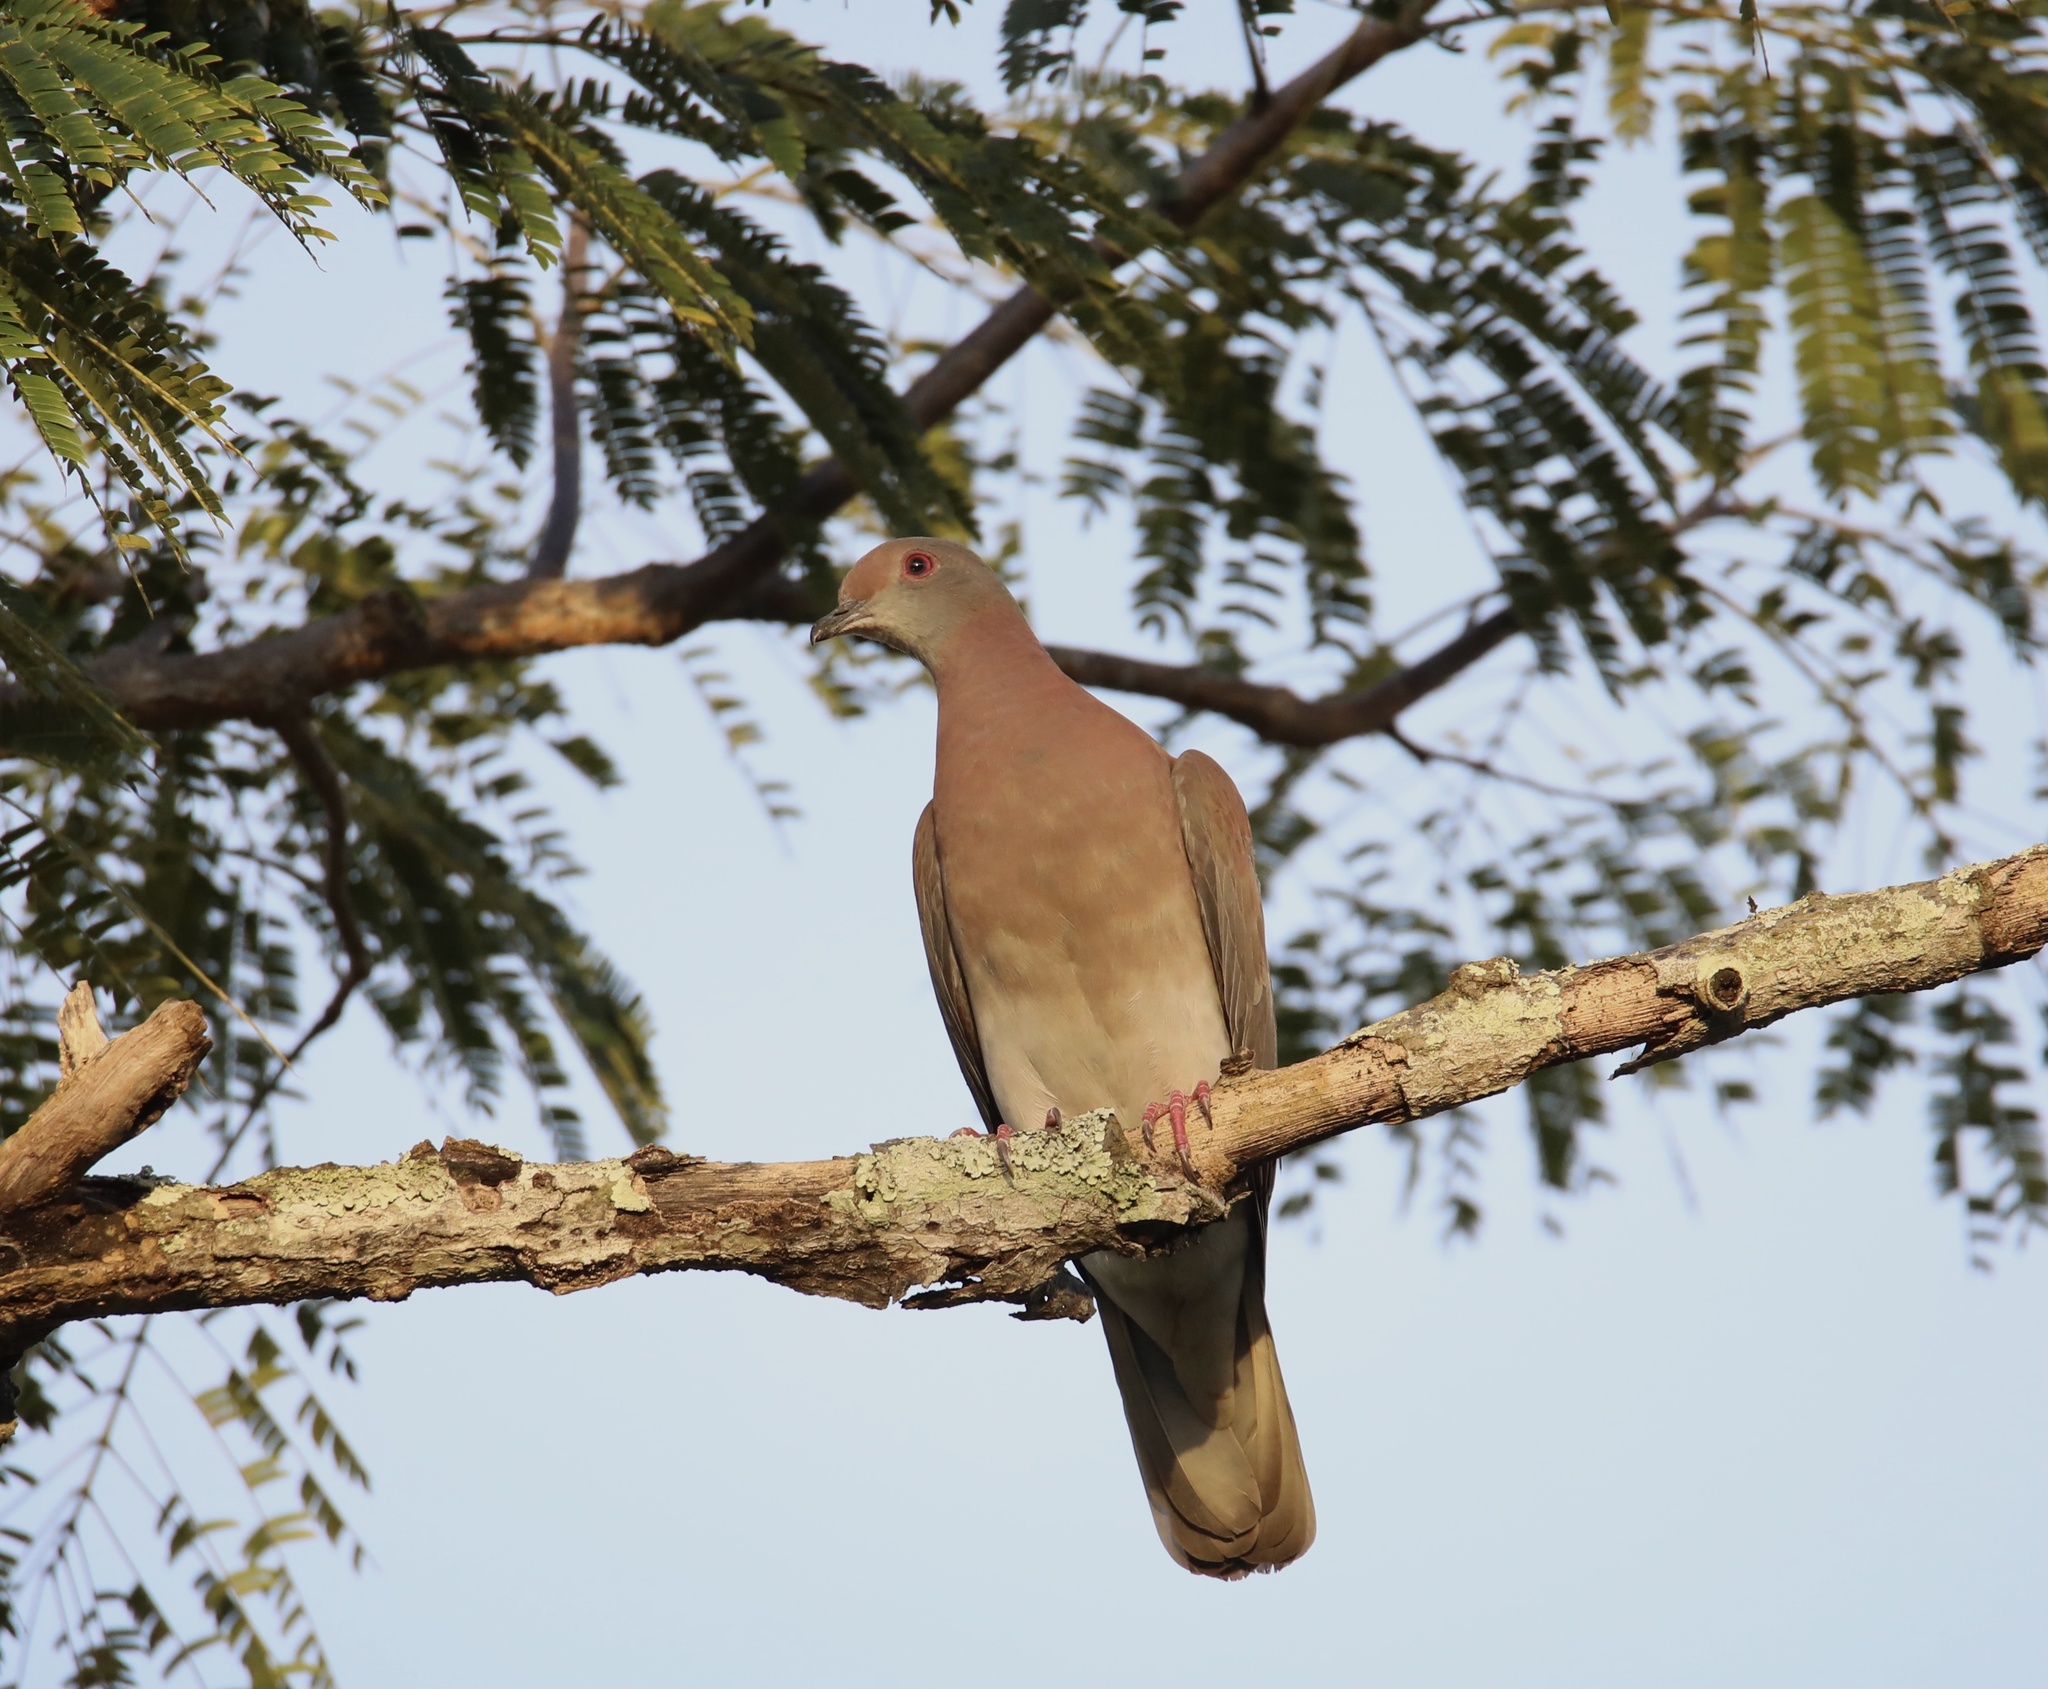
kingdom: Animalia
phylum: Chordata
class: Aves
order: Columbiformes
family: Columbidae
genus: Patagioenas
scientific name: Patagioenas cayennensis
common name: Pale-vented pigeon
